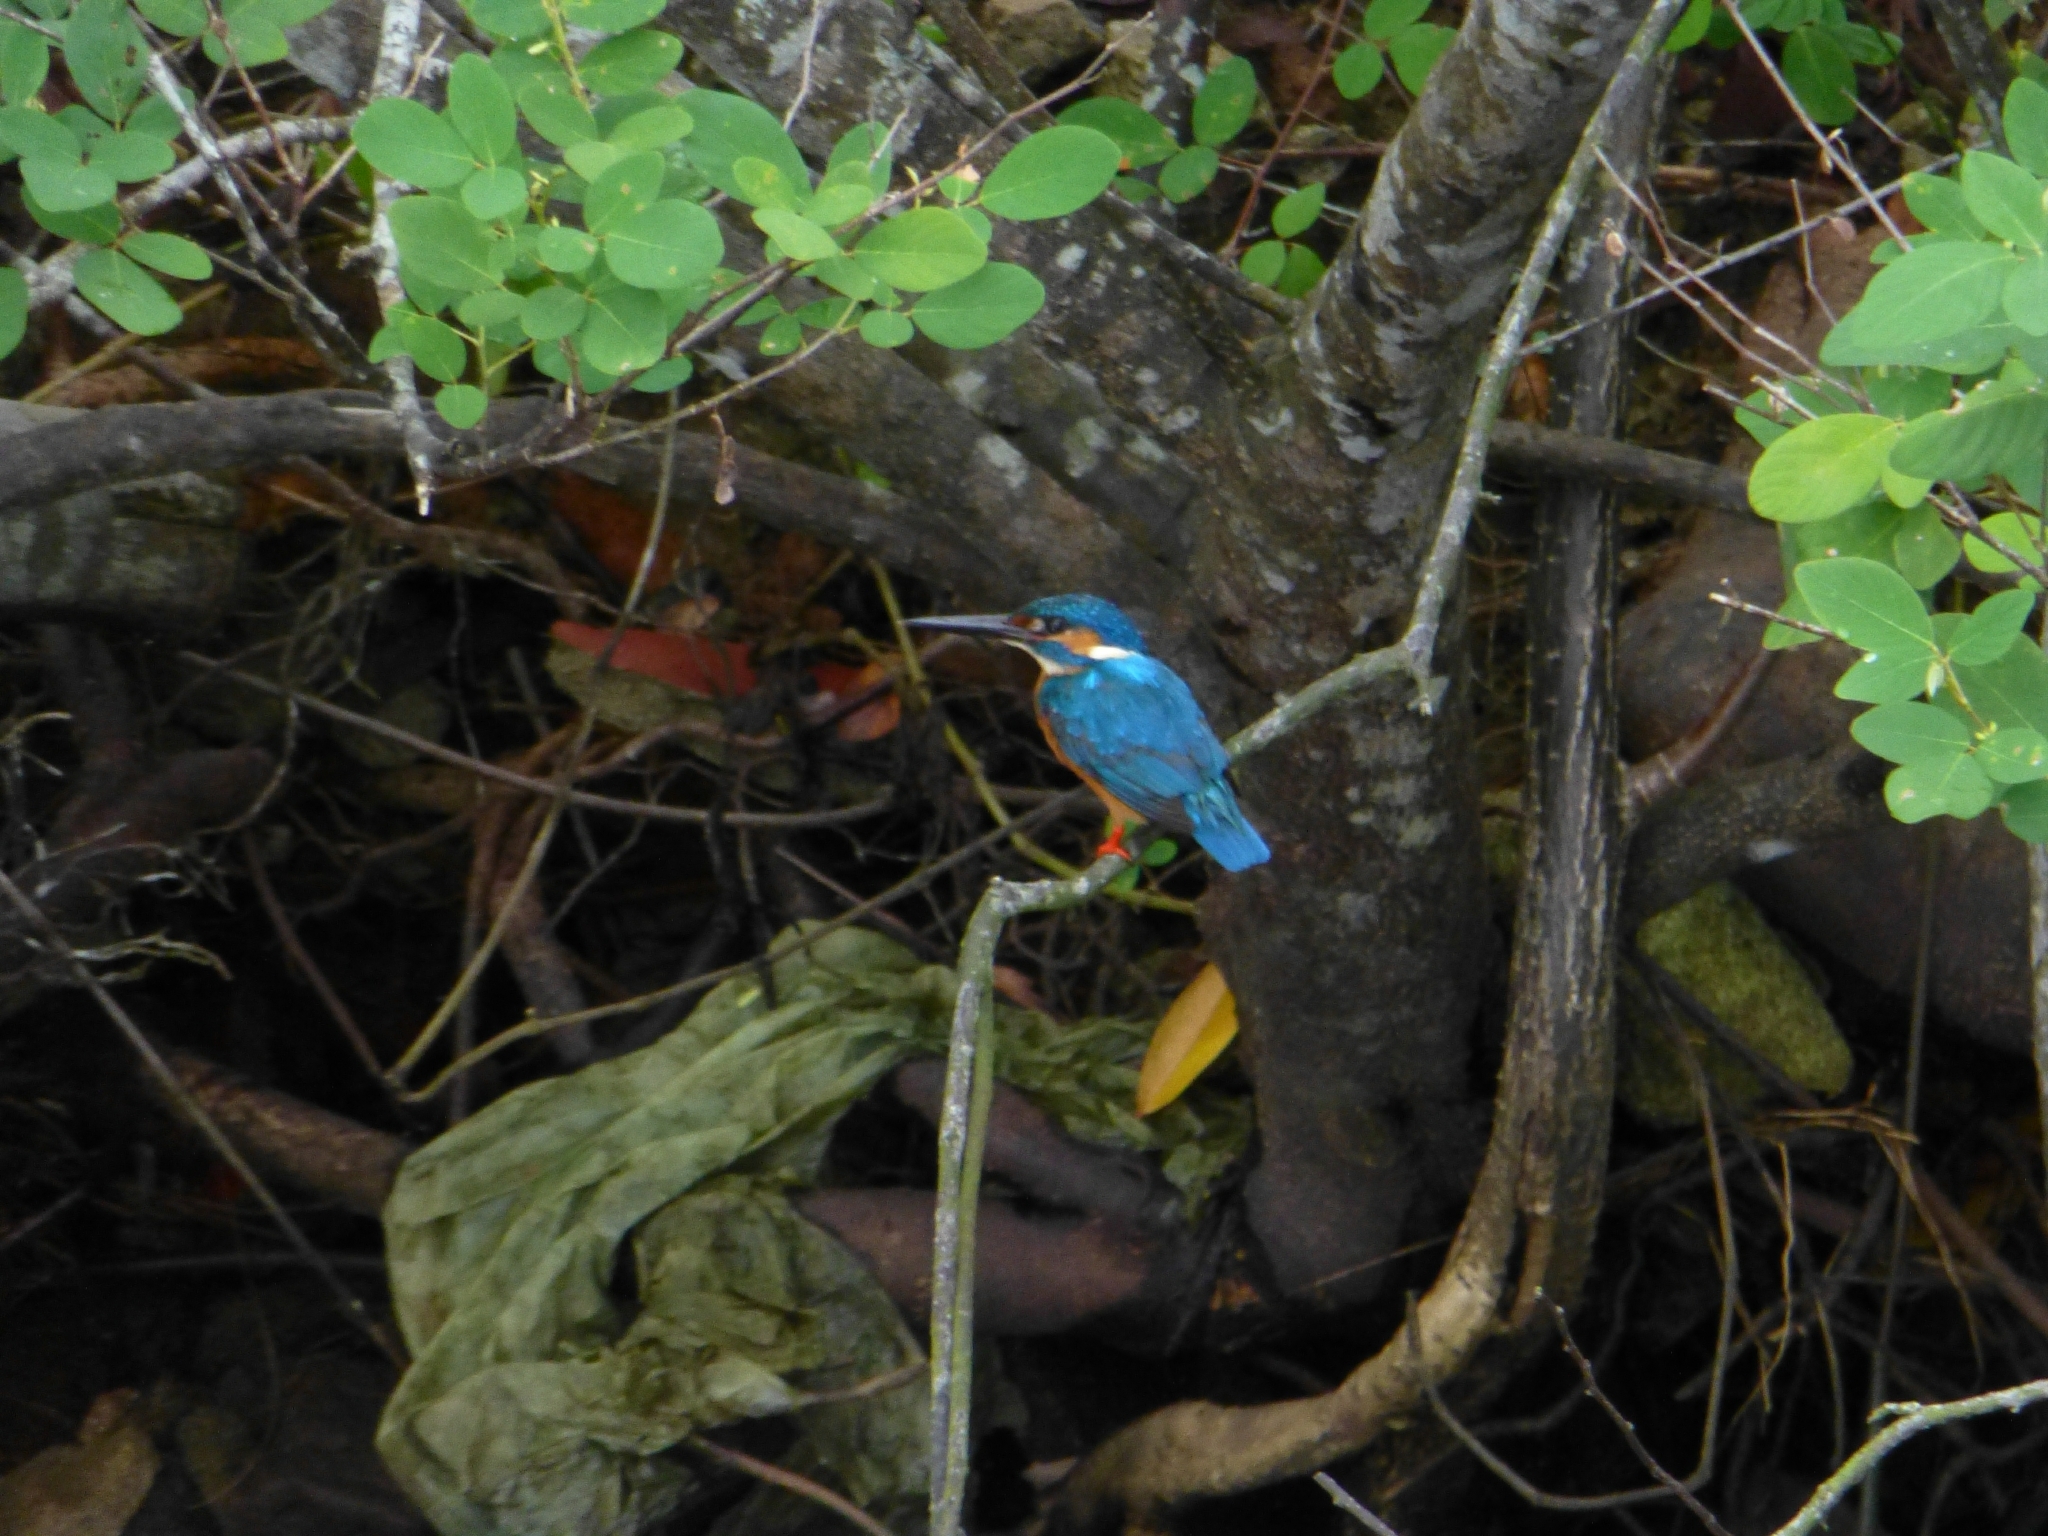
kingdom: Animalia
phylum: Chordata
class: Aves
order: Coraciiformes
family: Alcedinidae
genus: Alcedo
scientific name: Alcedo atthis
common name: Common kingfisher
